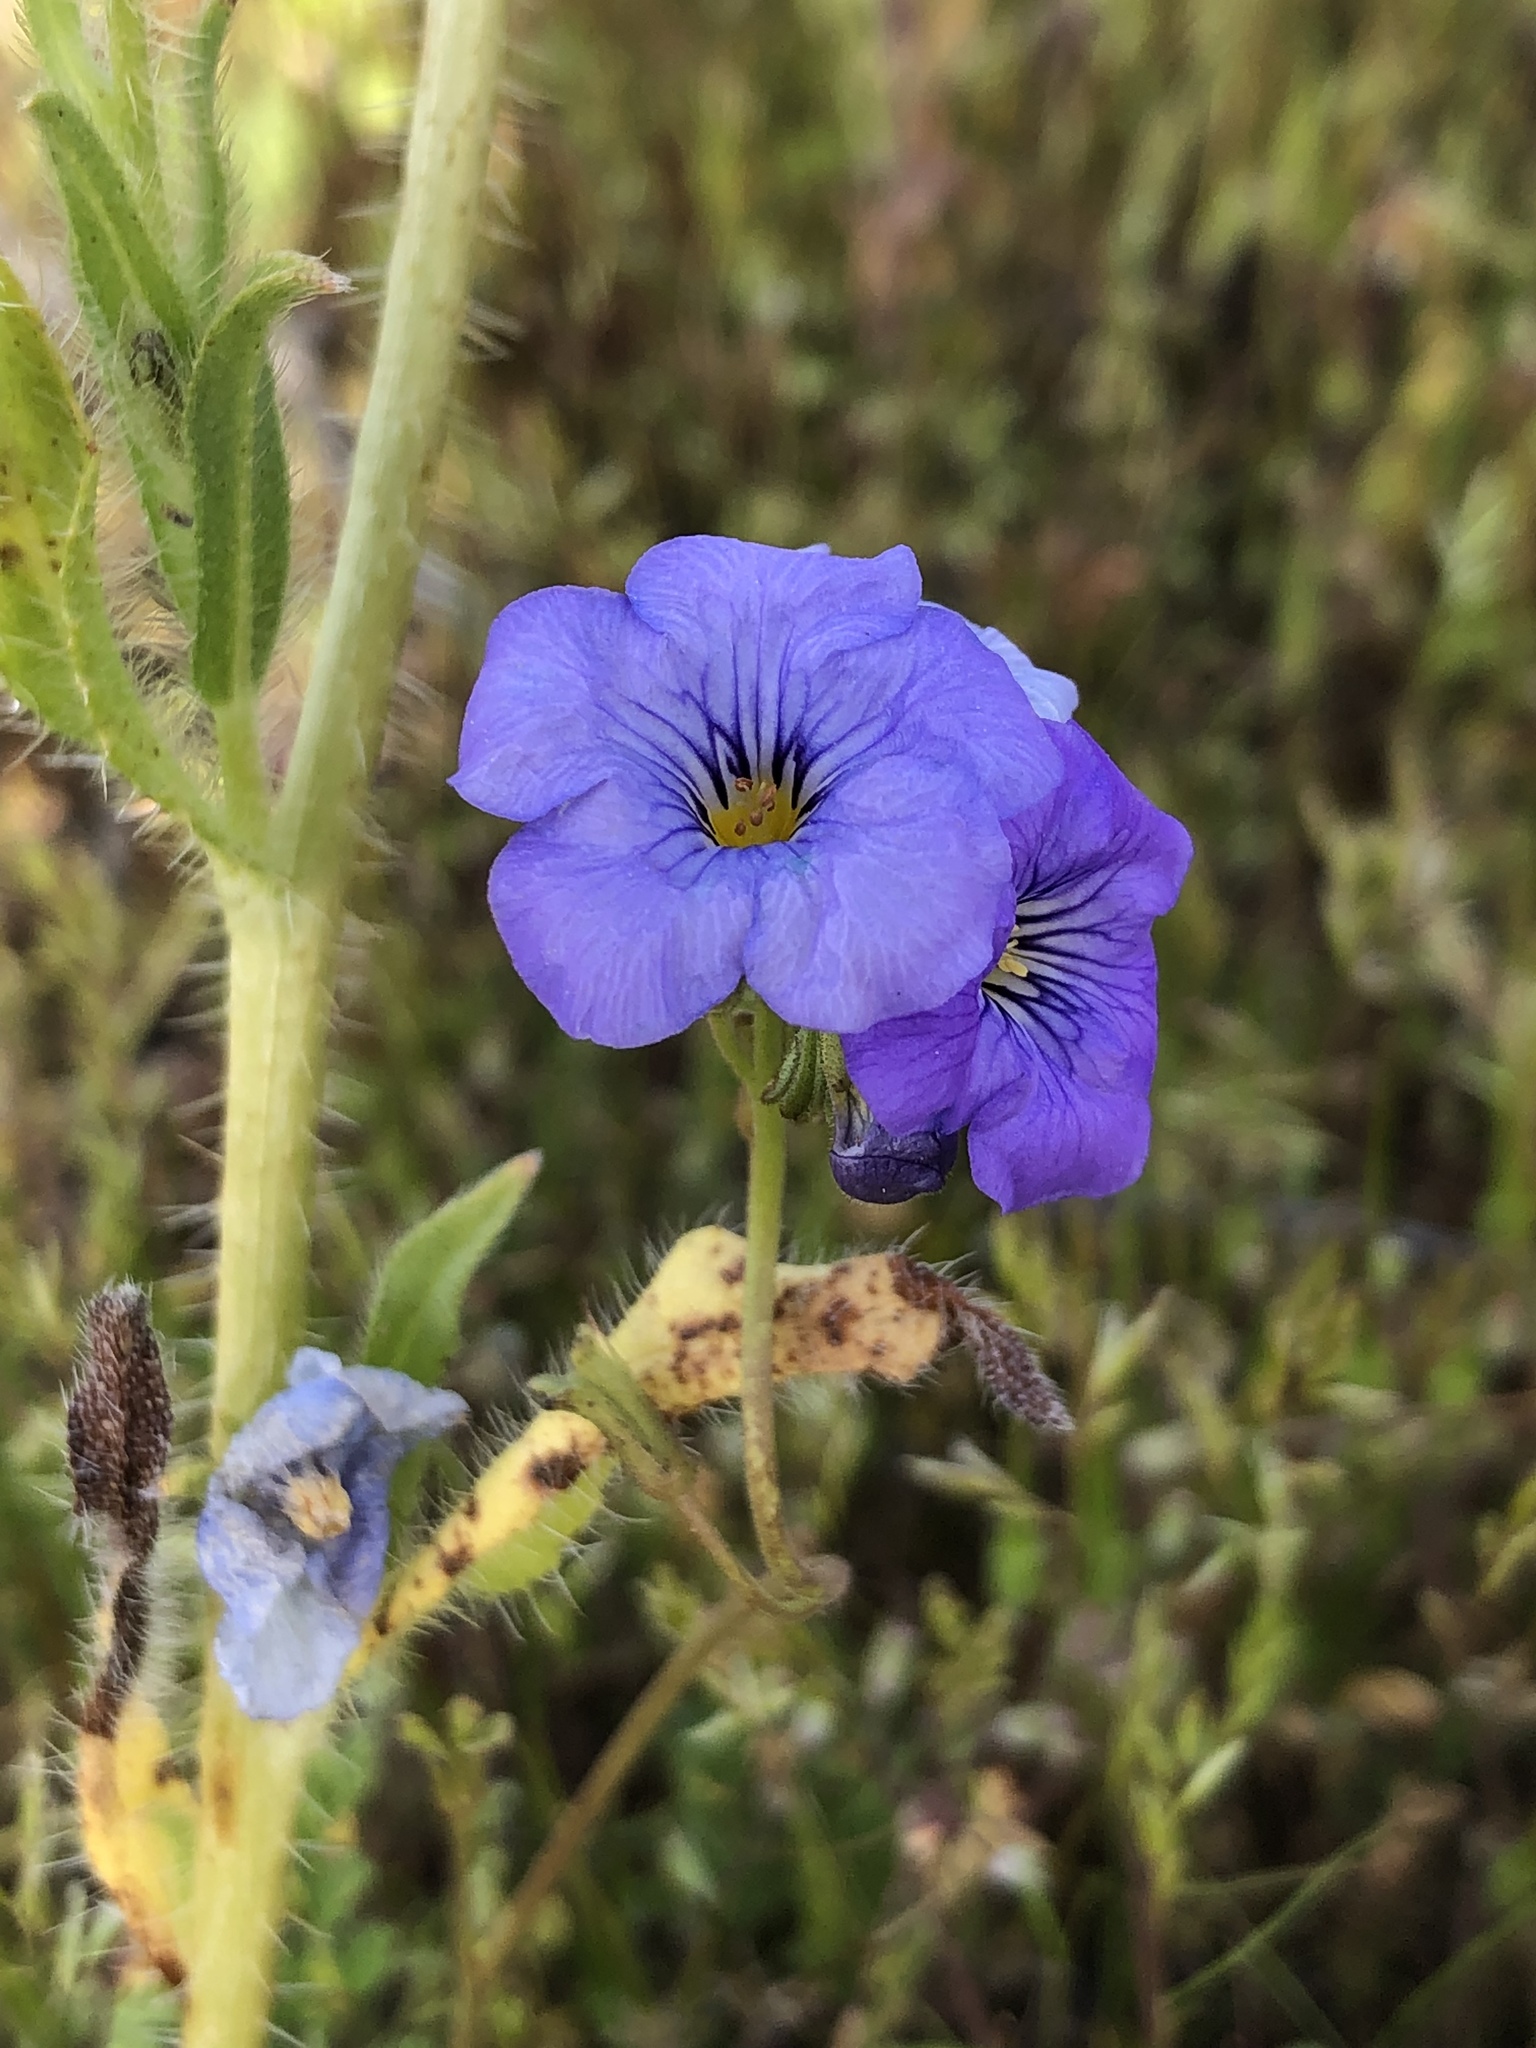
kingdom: Plantae
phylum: Tracheophyta
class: Magnoliopsida
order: Boraginales
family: Hydrophyllaceae
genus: Phacelia
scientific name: Phacelia fremontii
